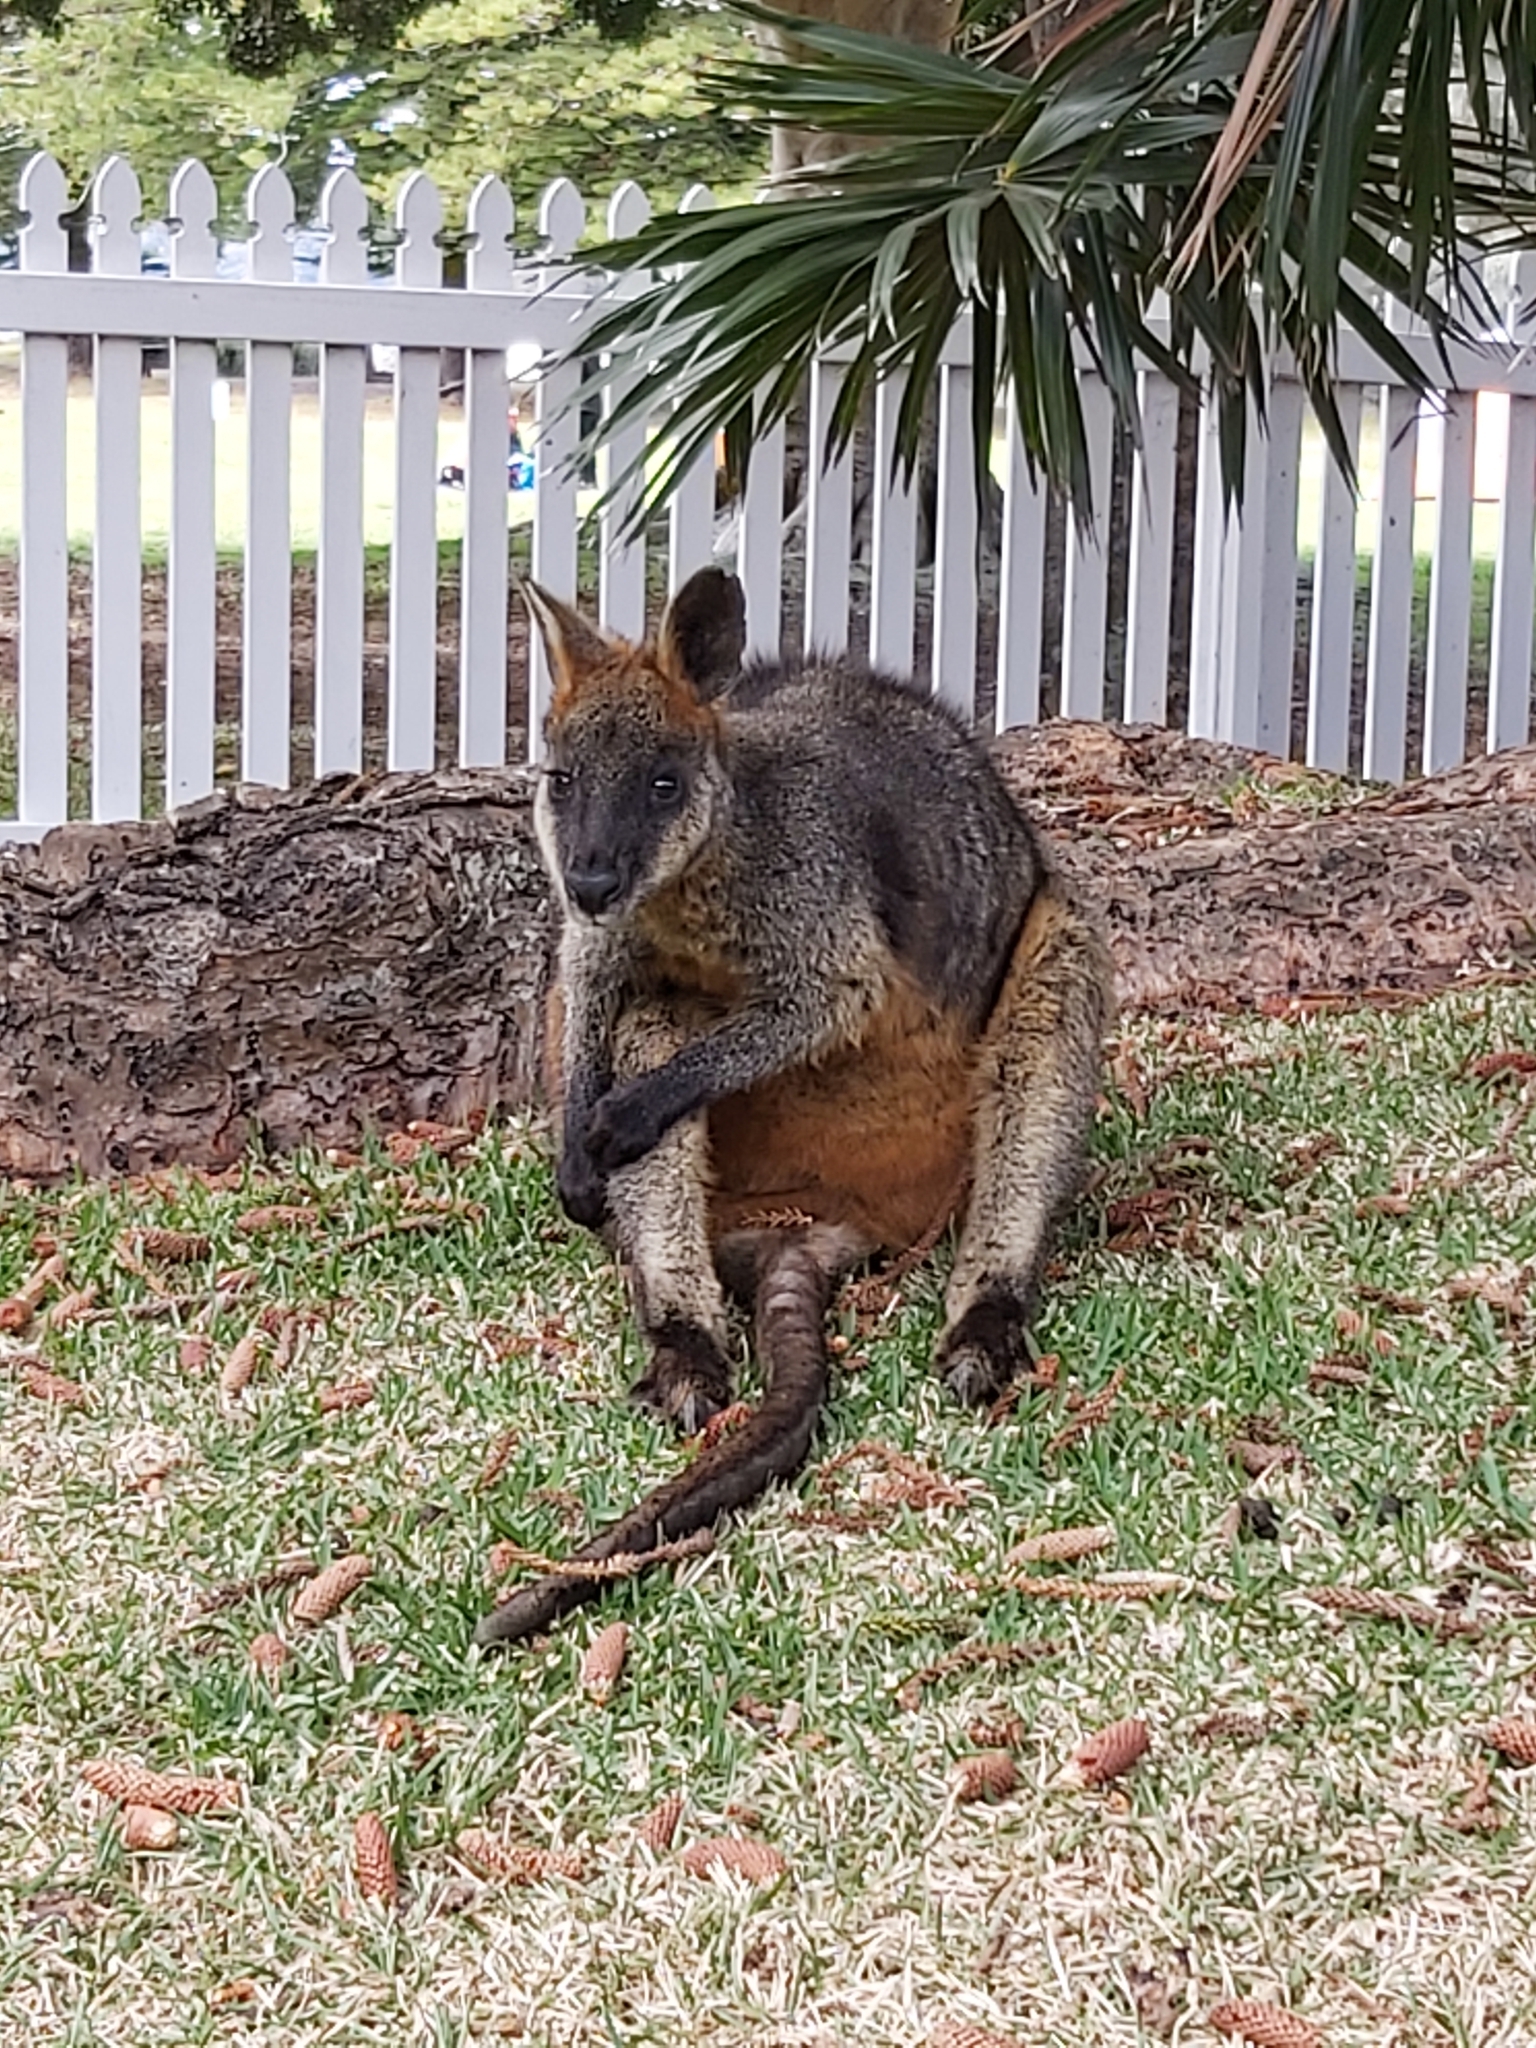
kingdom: Animalia
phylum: Chordata
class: Mammalia
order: Diprotodontia
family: Macropodidae
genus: Wallabia
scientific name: Wallabia bicolor
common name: Swamp wallaby
